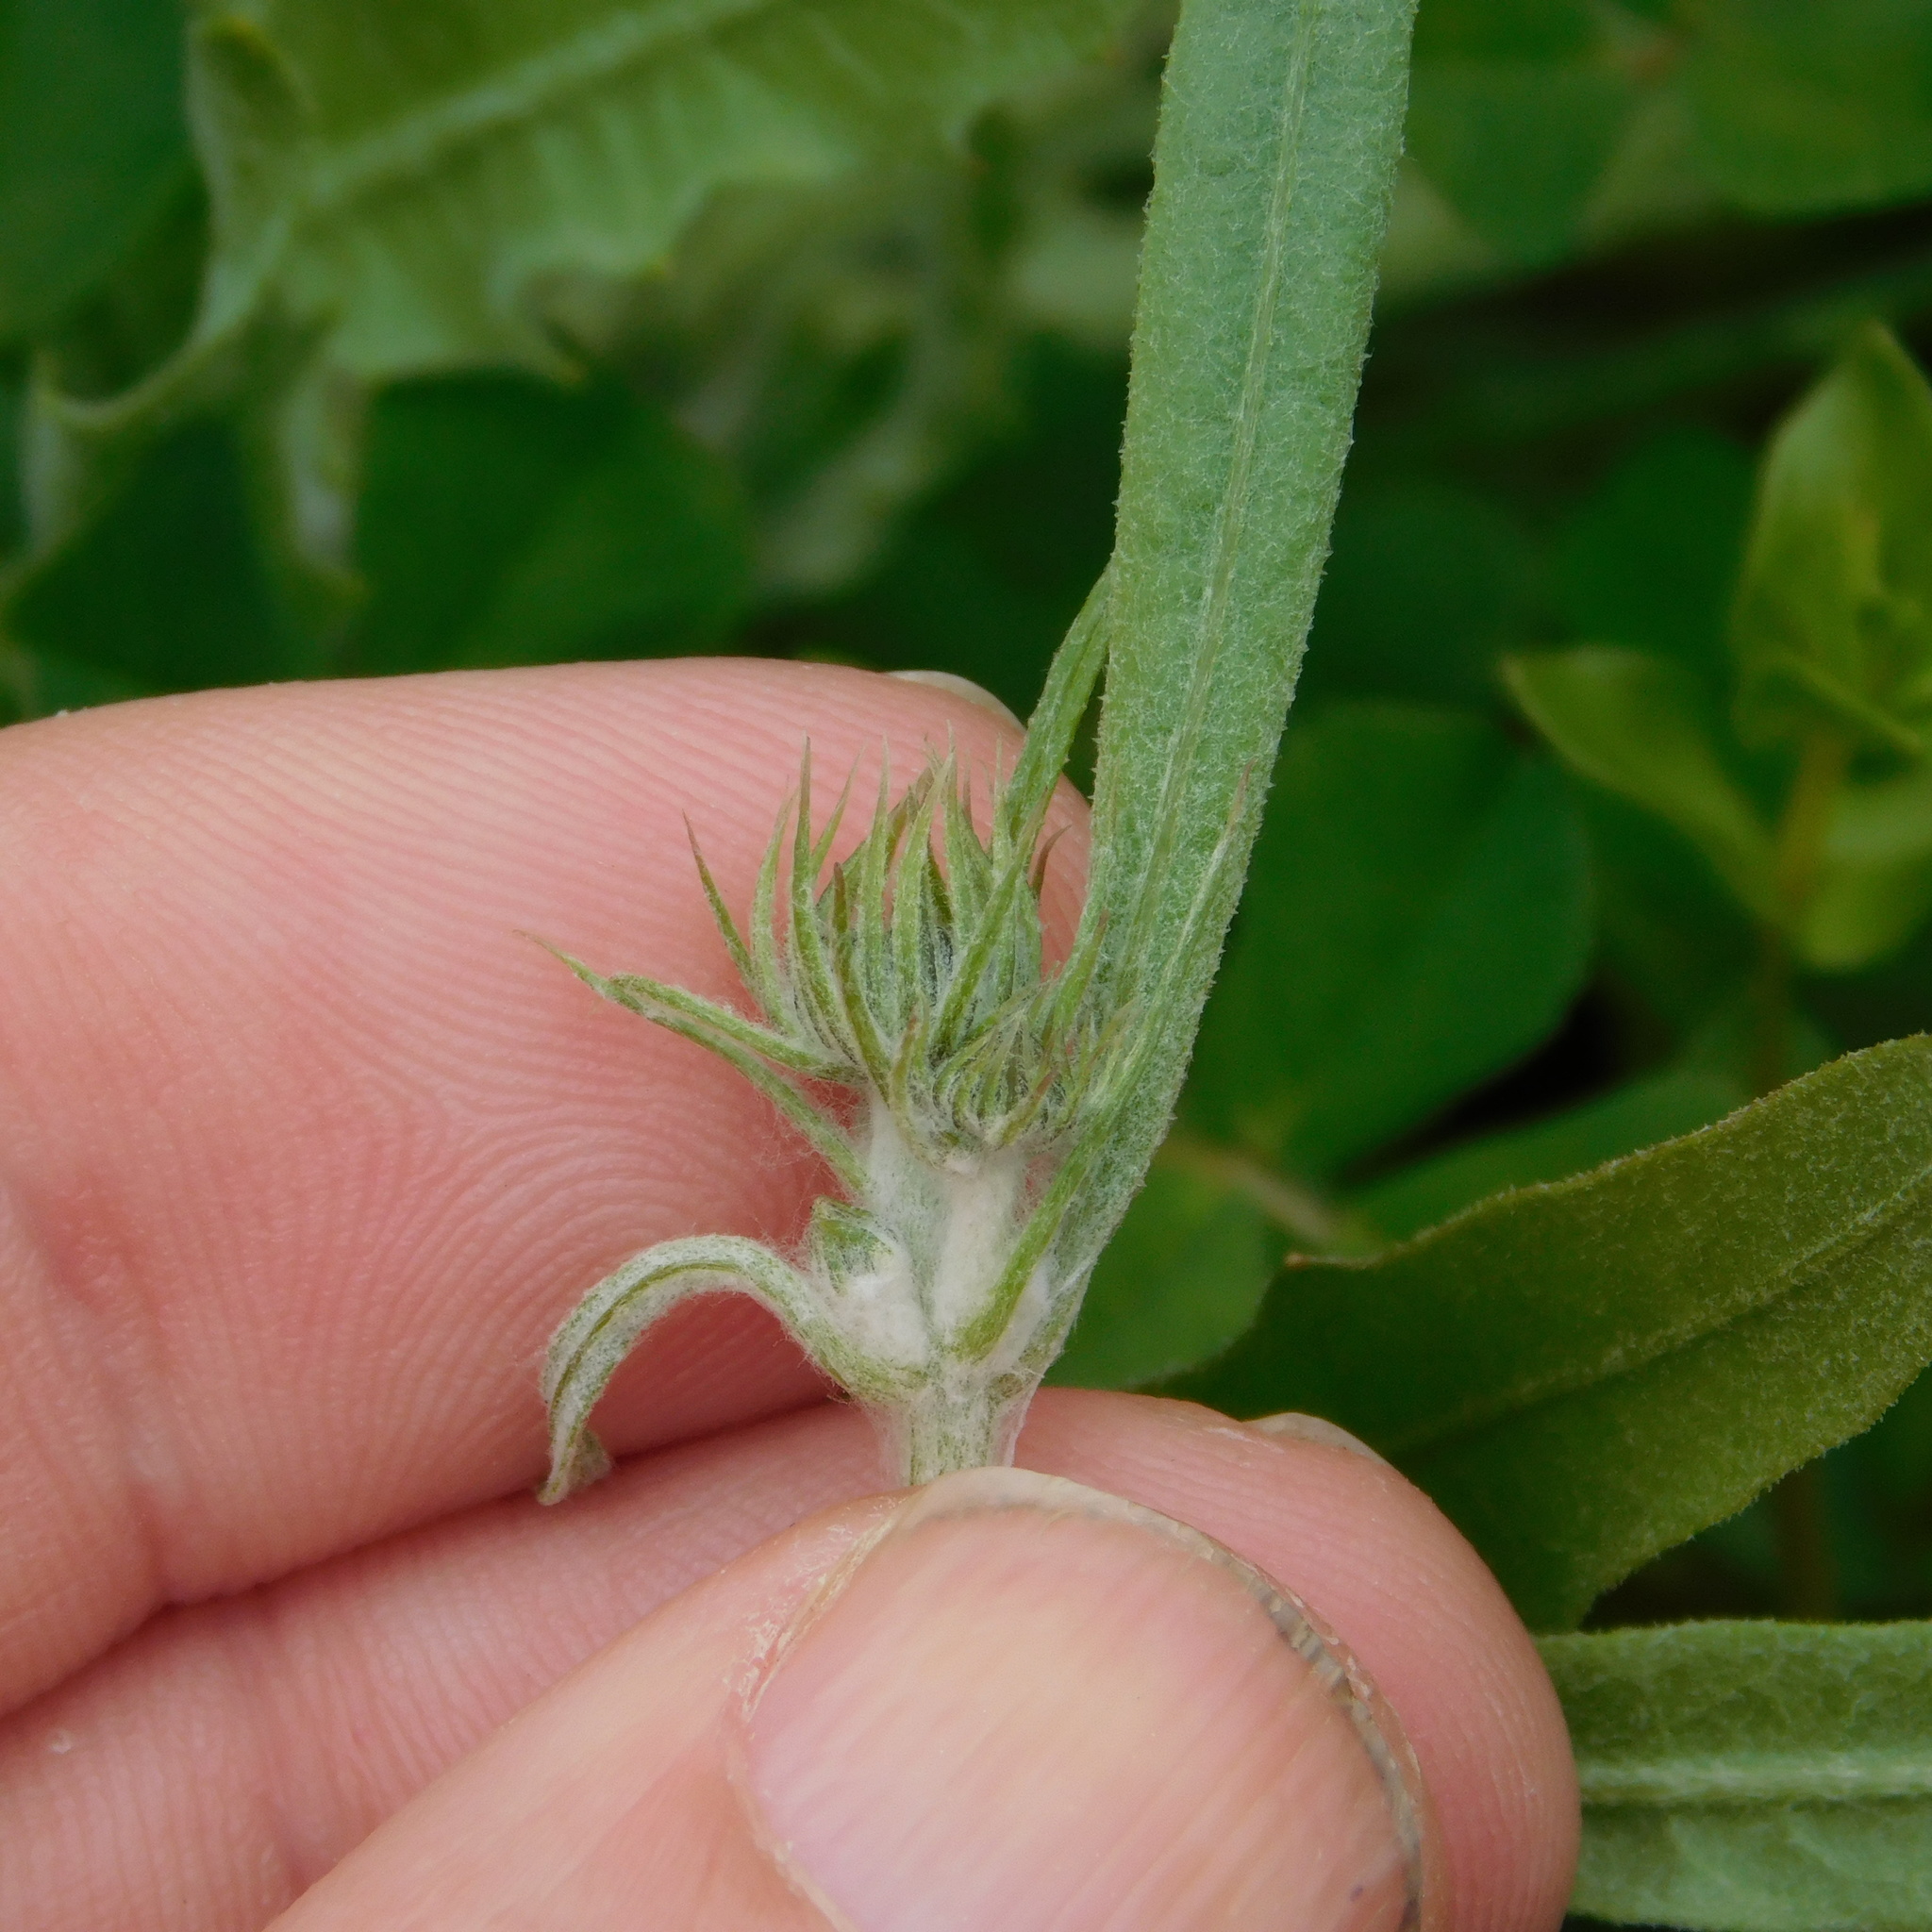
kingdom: Plantae
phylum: Tracheophyta
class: Magnoliopsida
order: Asterales
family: Asteraceae
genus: Tolpis
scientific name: Tolpis barbata
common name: Yellow hawkweed
